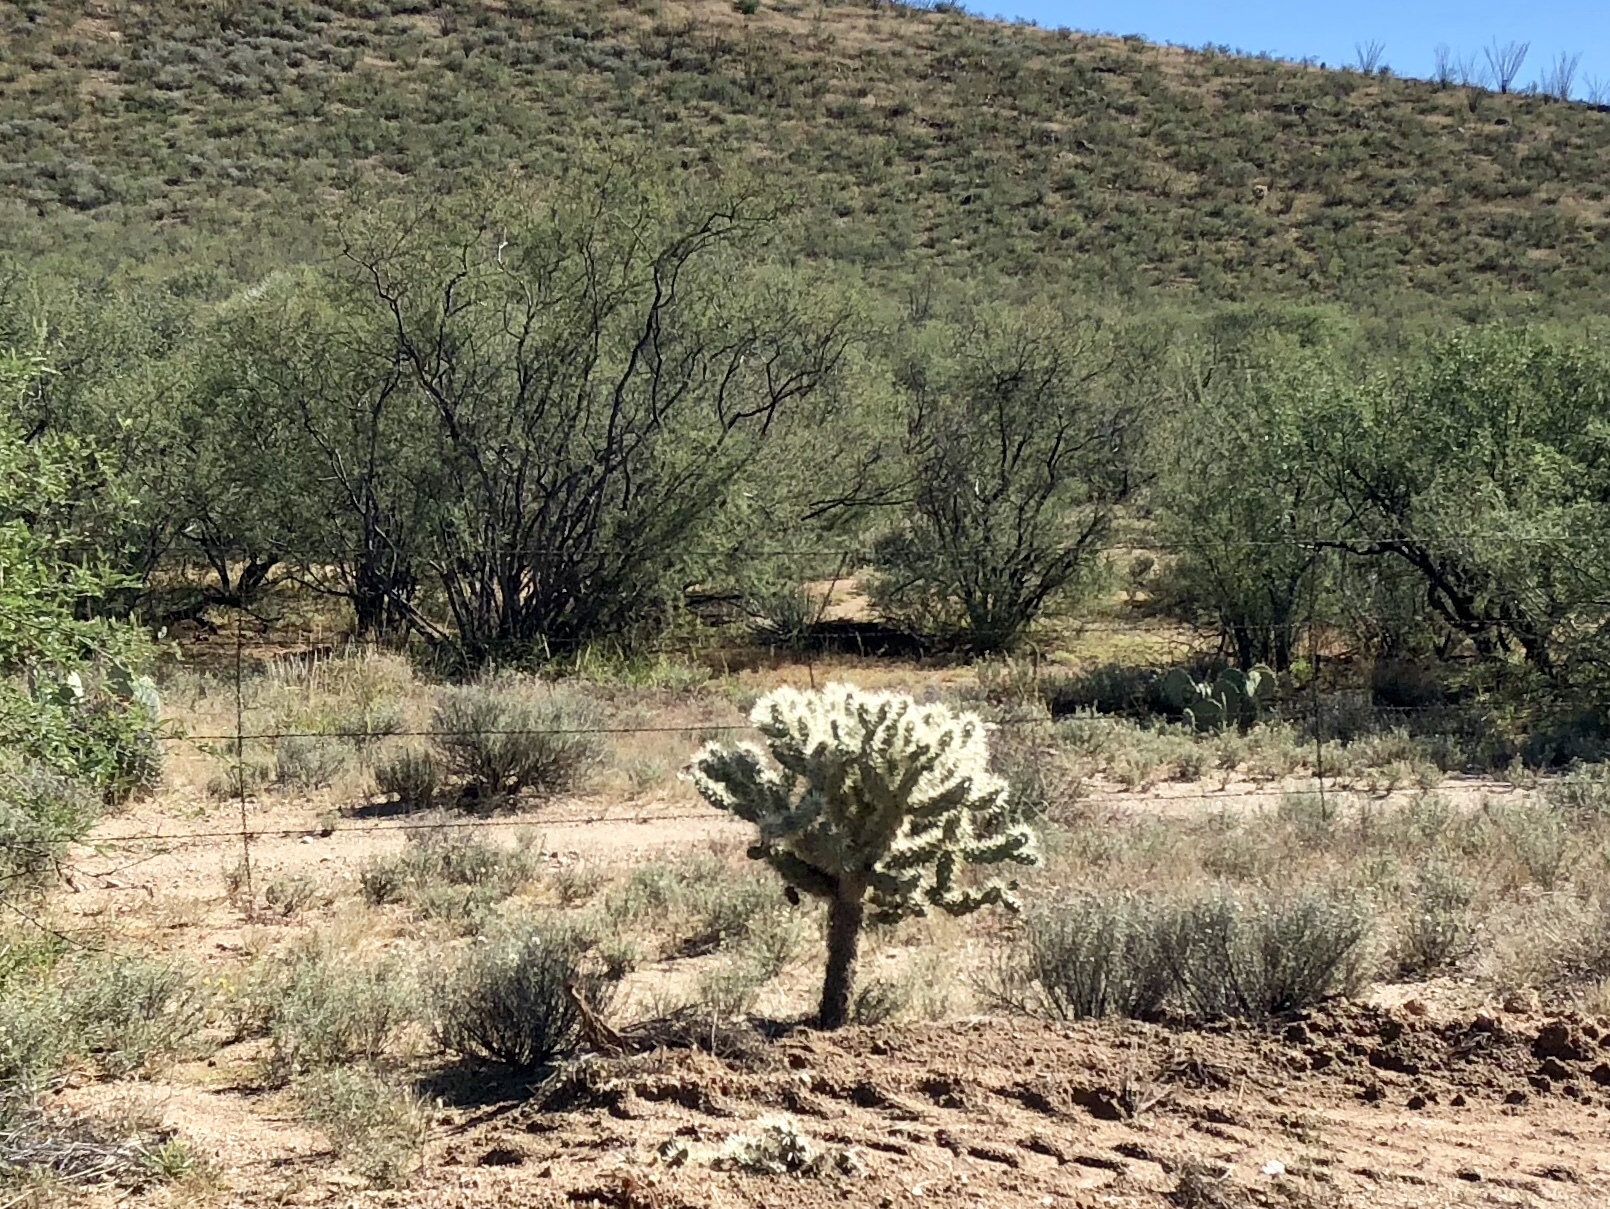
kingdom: Plantae
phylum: Tracheophyta
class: Magnoliopsida
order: Caryophyllales
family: Cactaceae
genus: Cylindropuntia
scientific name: Cylindropuntia fulgida
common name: Jumping cholla
